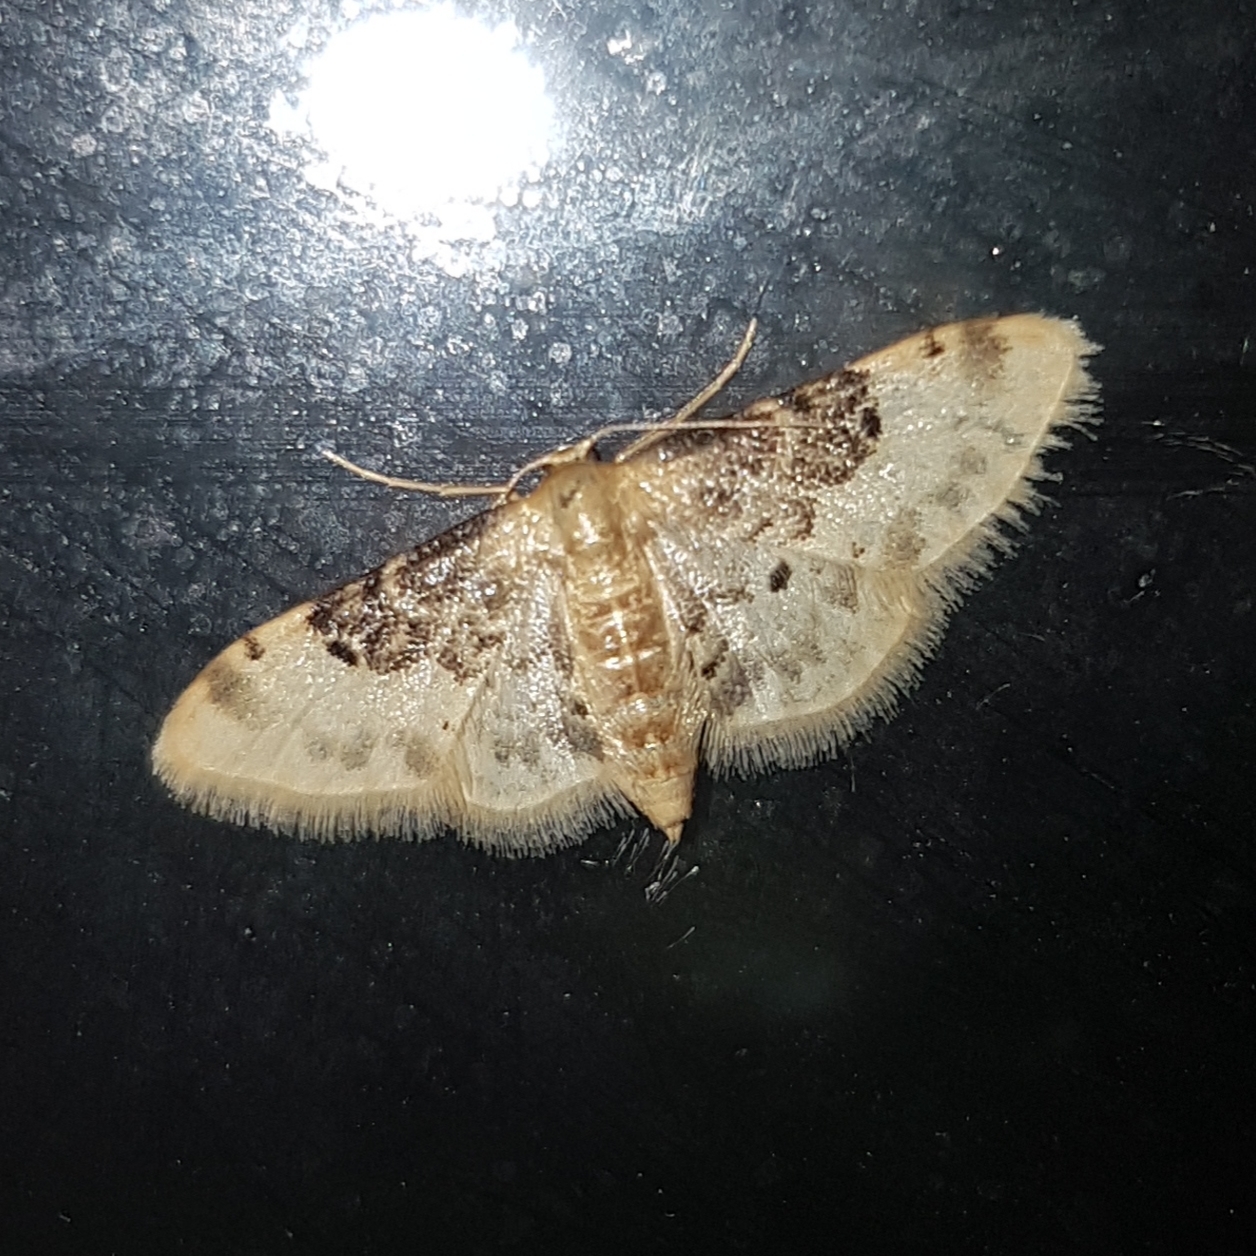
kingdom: Animalia
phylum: Arthropoda
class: Insecta
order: Lepidoptera
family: Geometridae
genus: Idaea
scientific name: Idaea filicata
